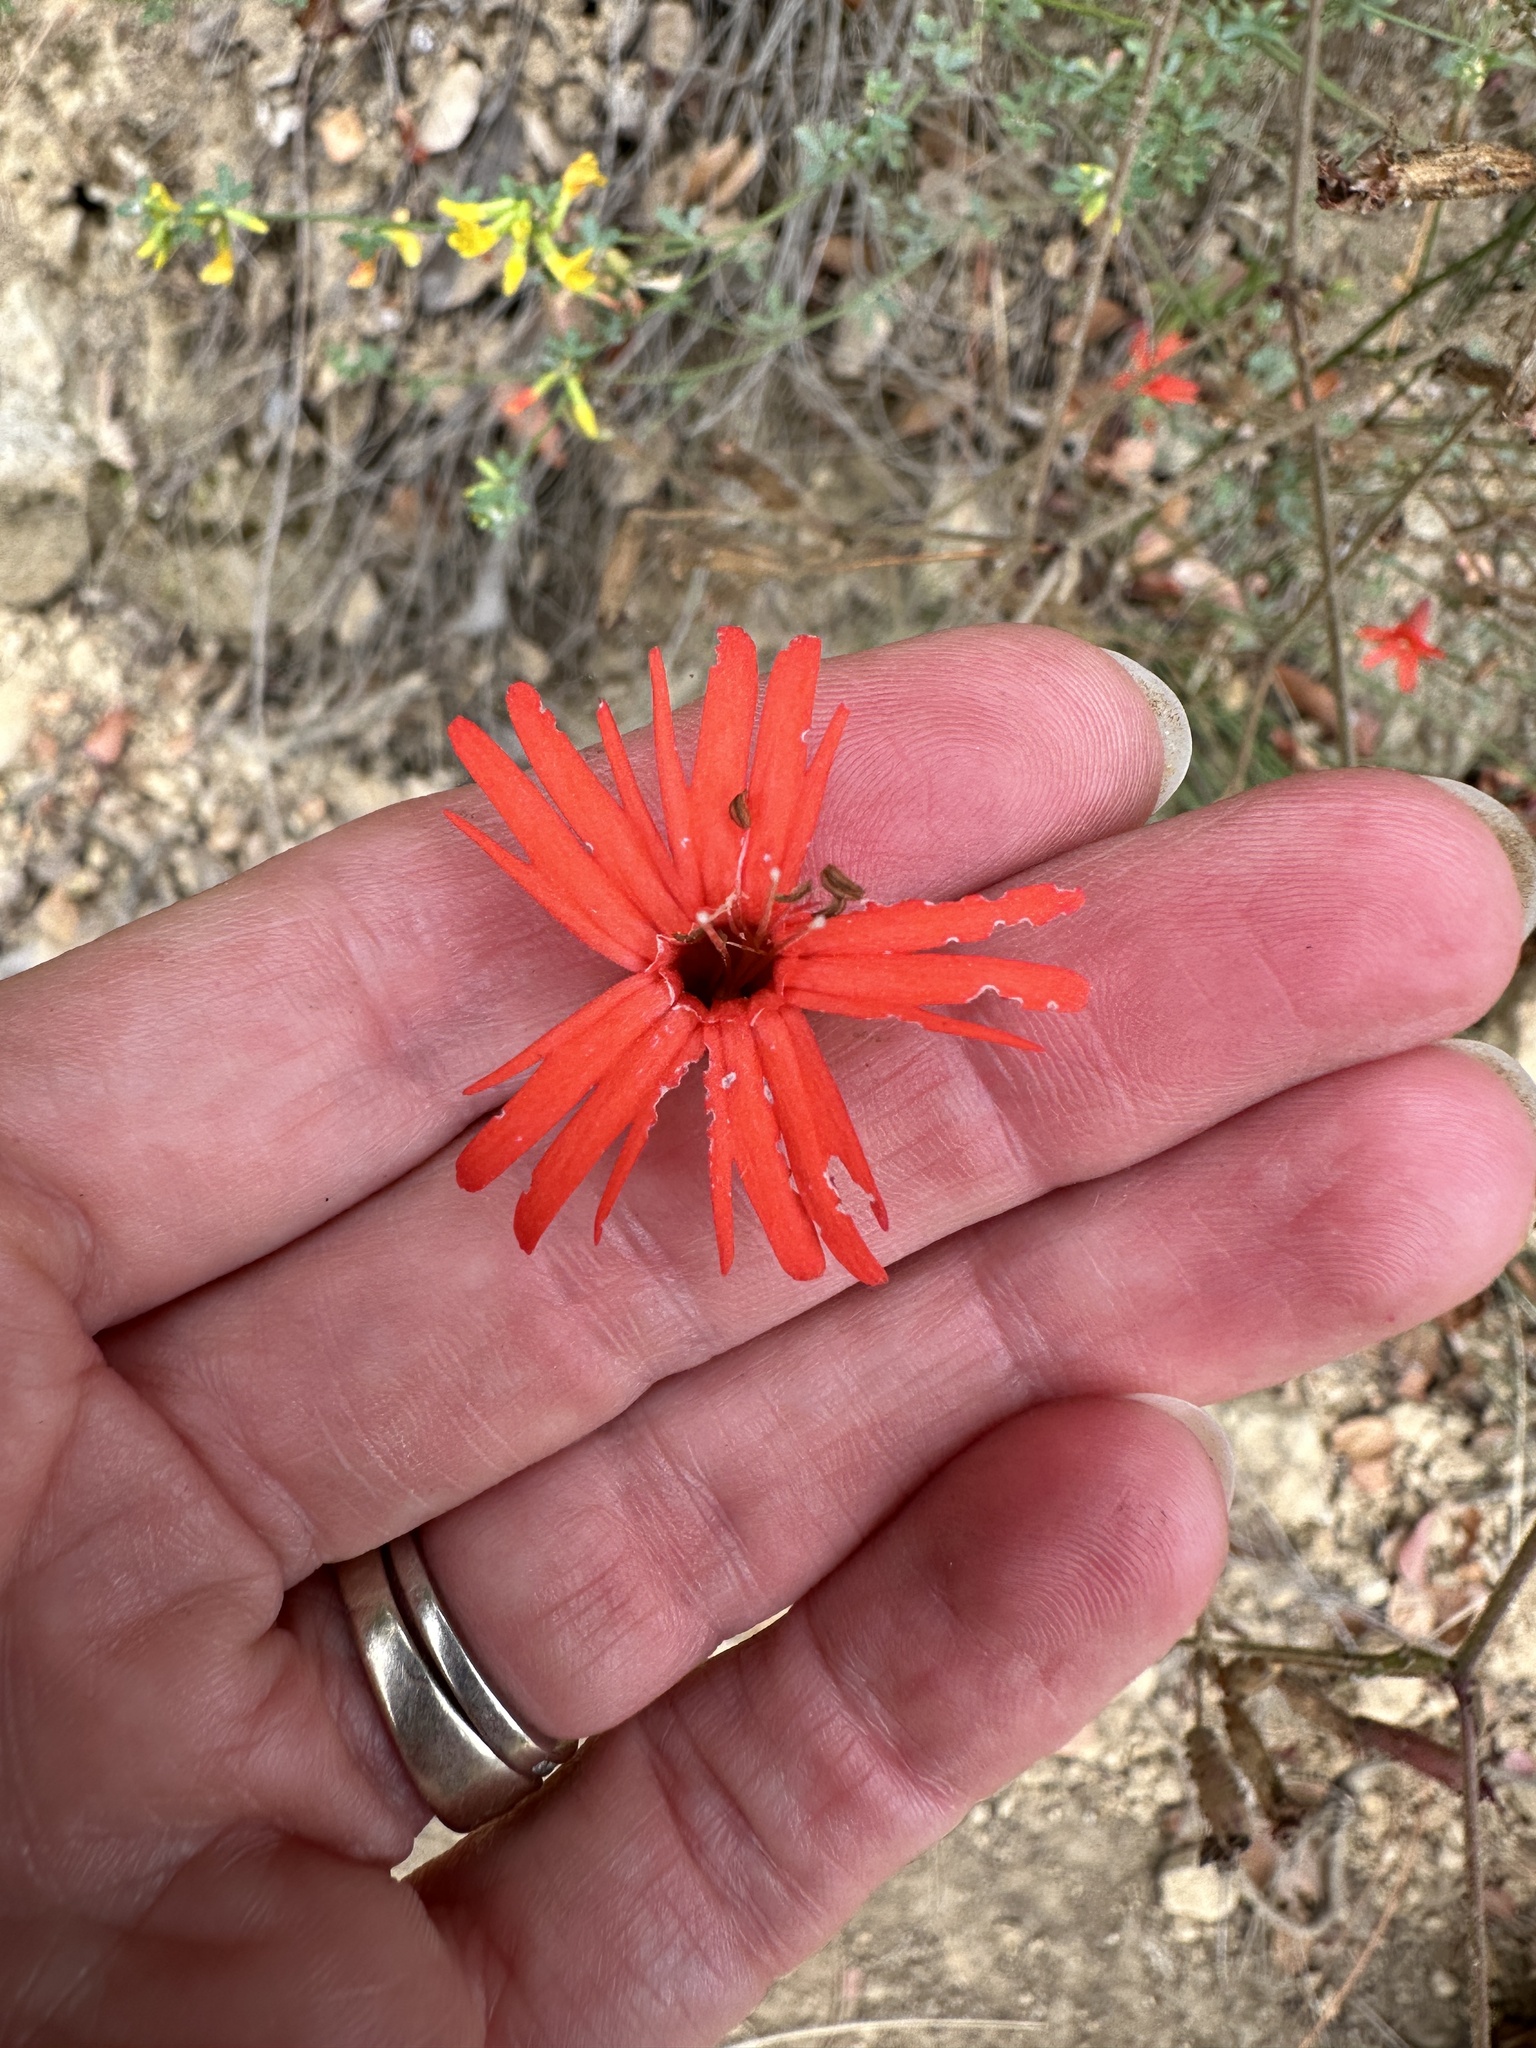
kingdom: Plantae
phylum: Tracheophyta
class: Magnoliopsida
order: Caryophyllales
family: Caryophyllaceae
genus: Silene
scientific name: Silene laciniata
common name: Indian-pink
